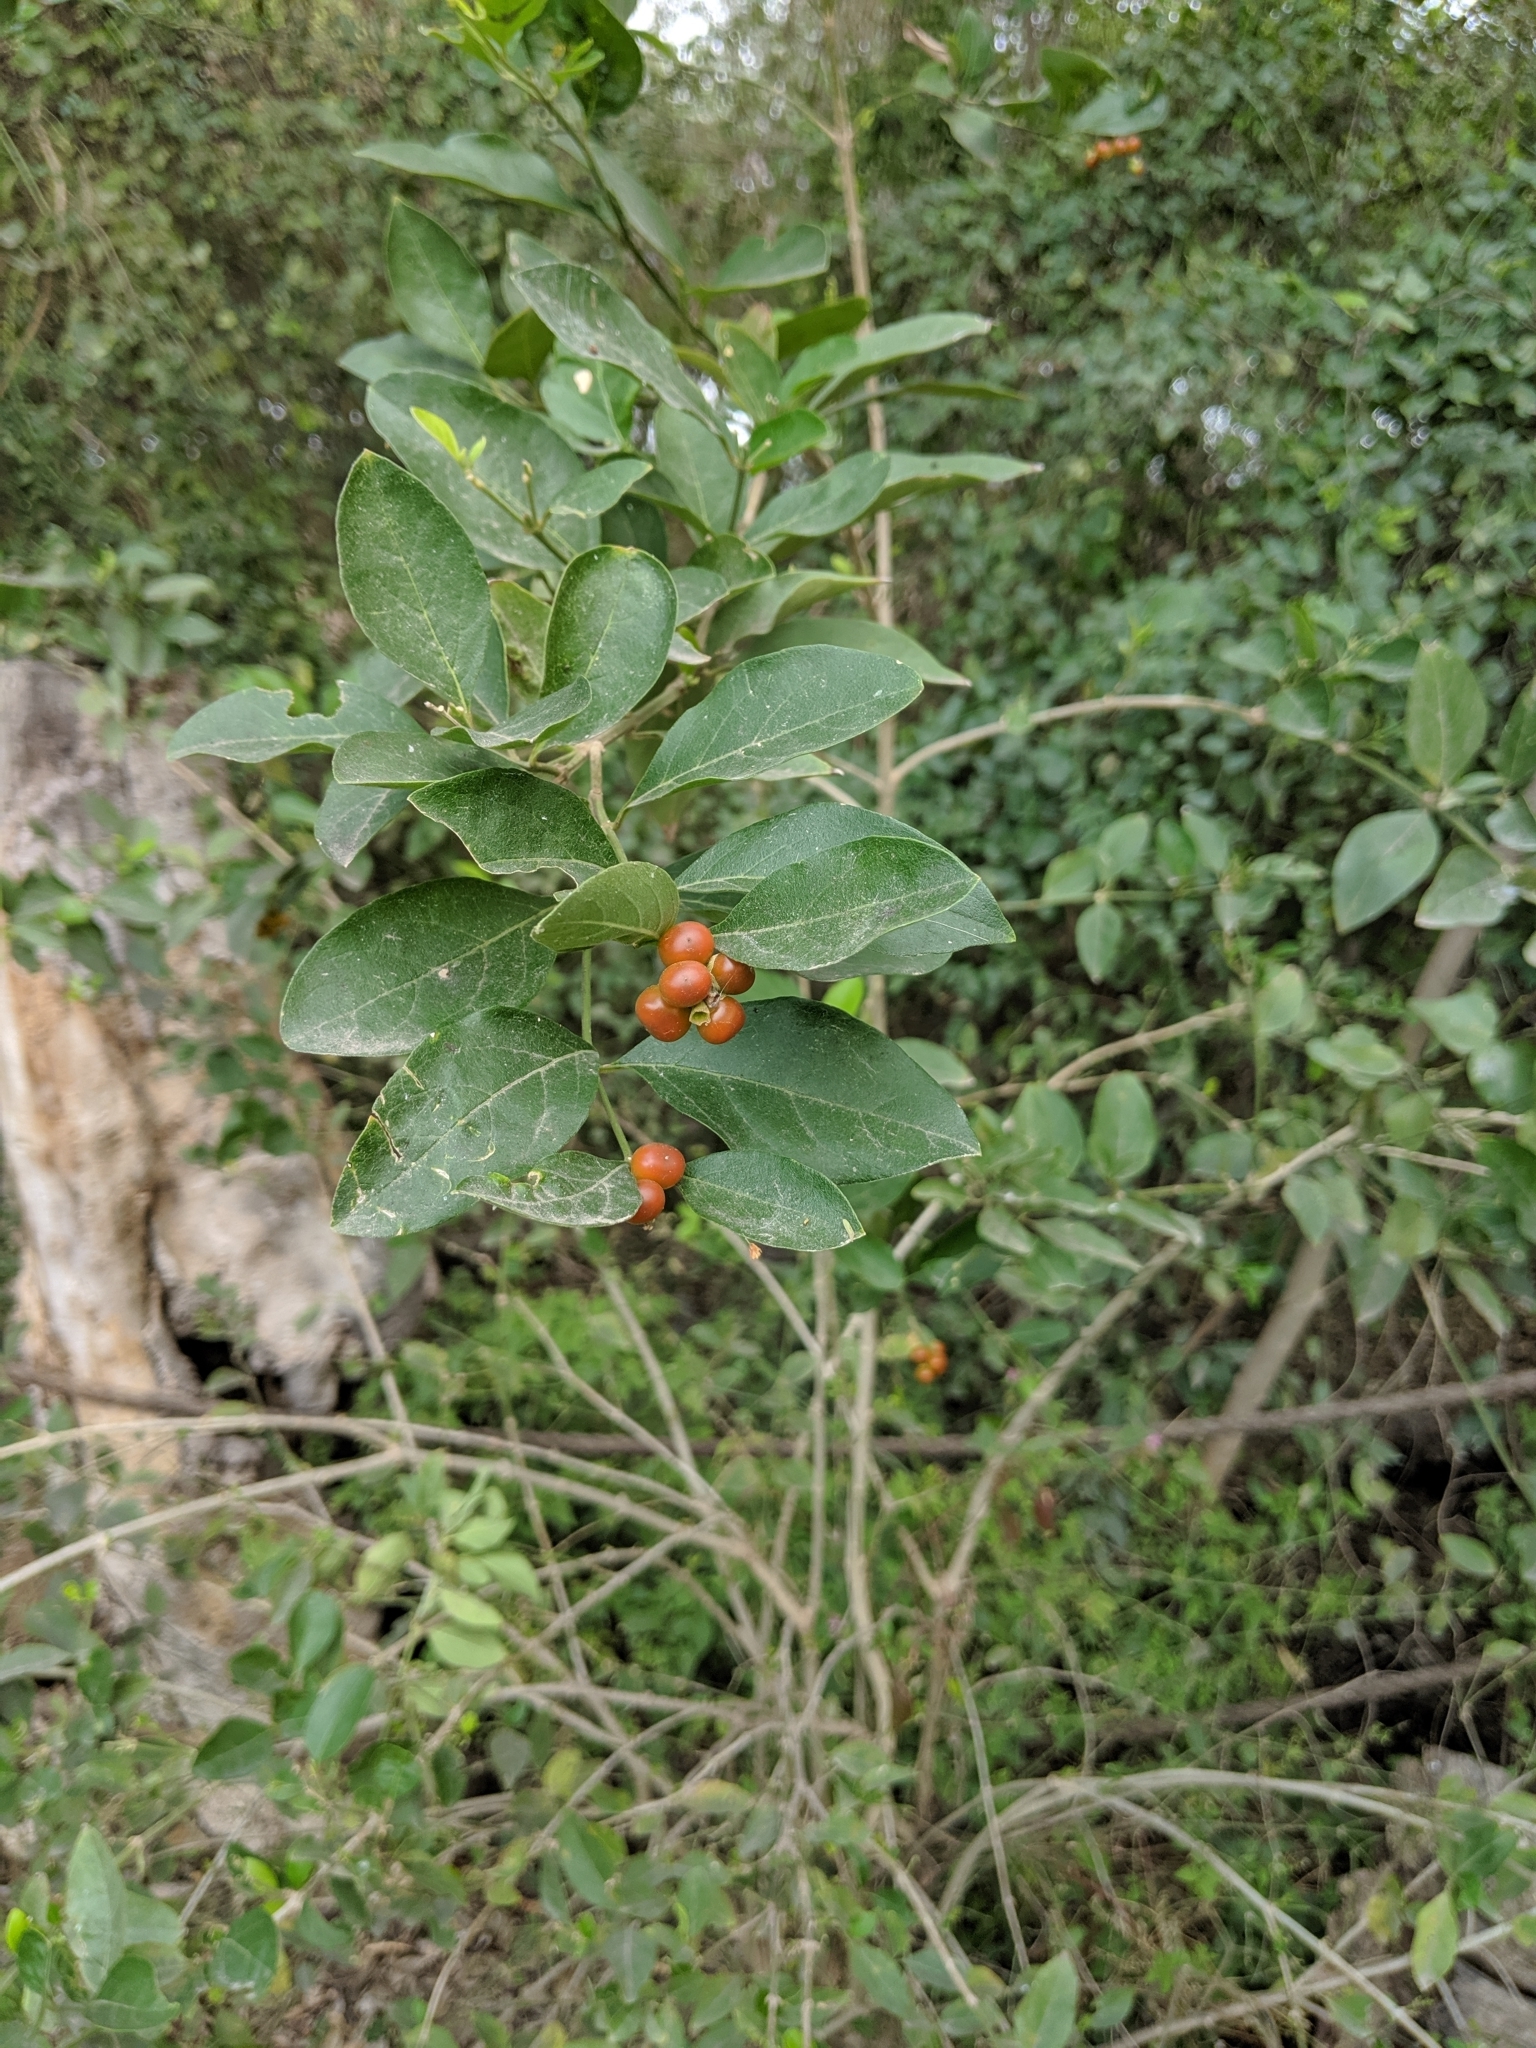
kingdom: Plantae
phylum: Tracheophyta
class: Magnoliopsida
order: Lamiales
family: Verbenaceae
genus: Citharexylum
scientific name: Citharexylum berlandieri
